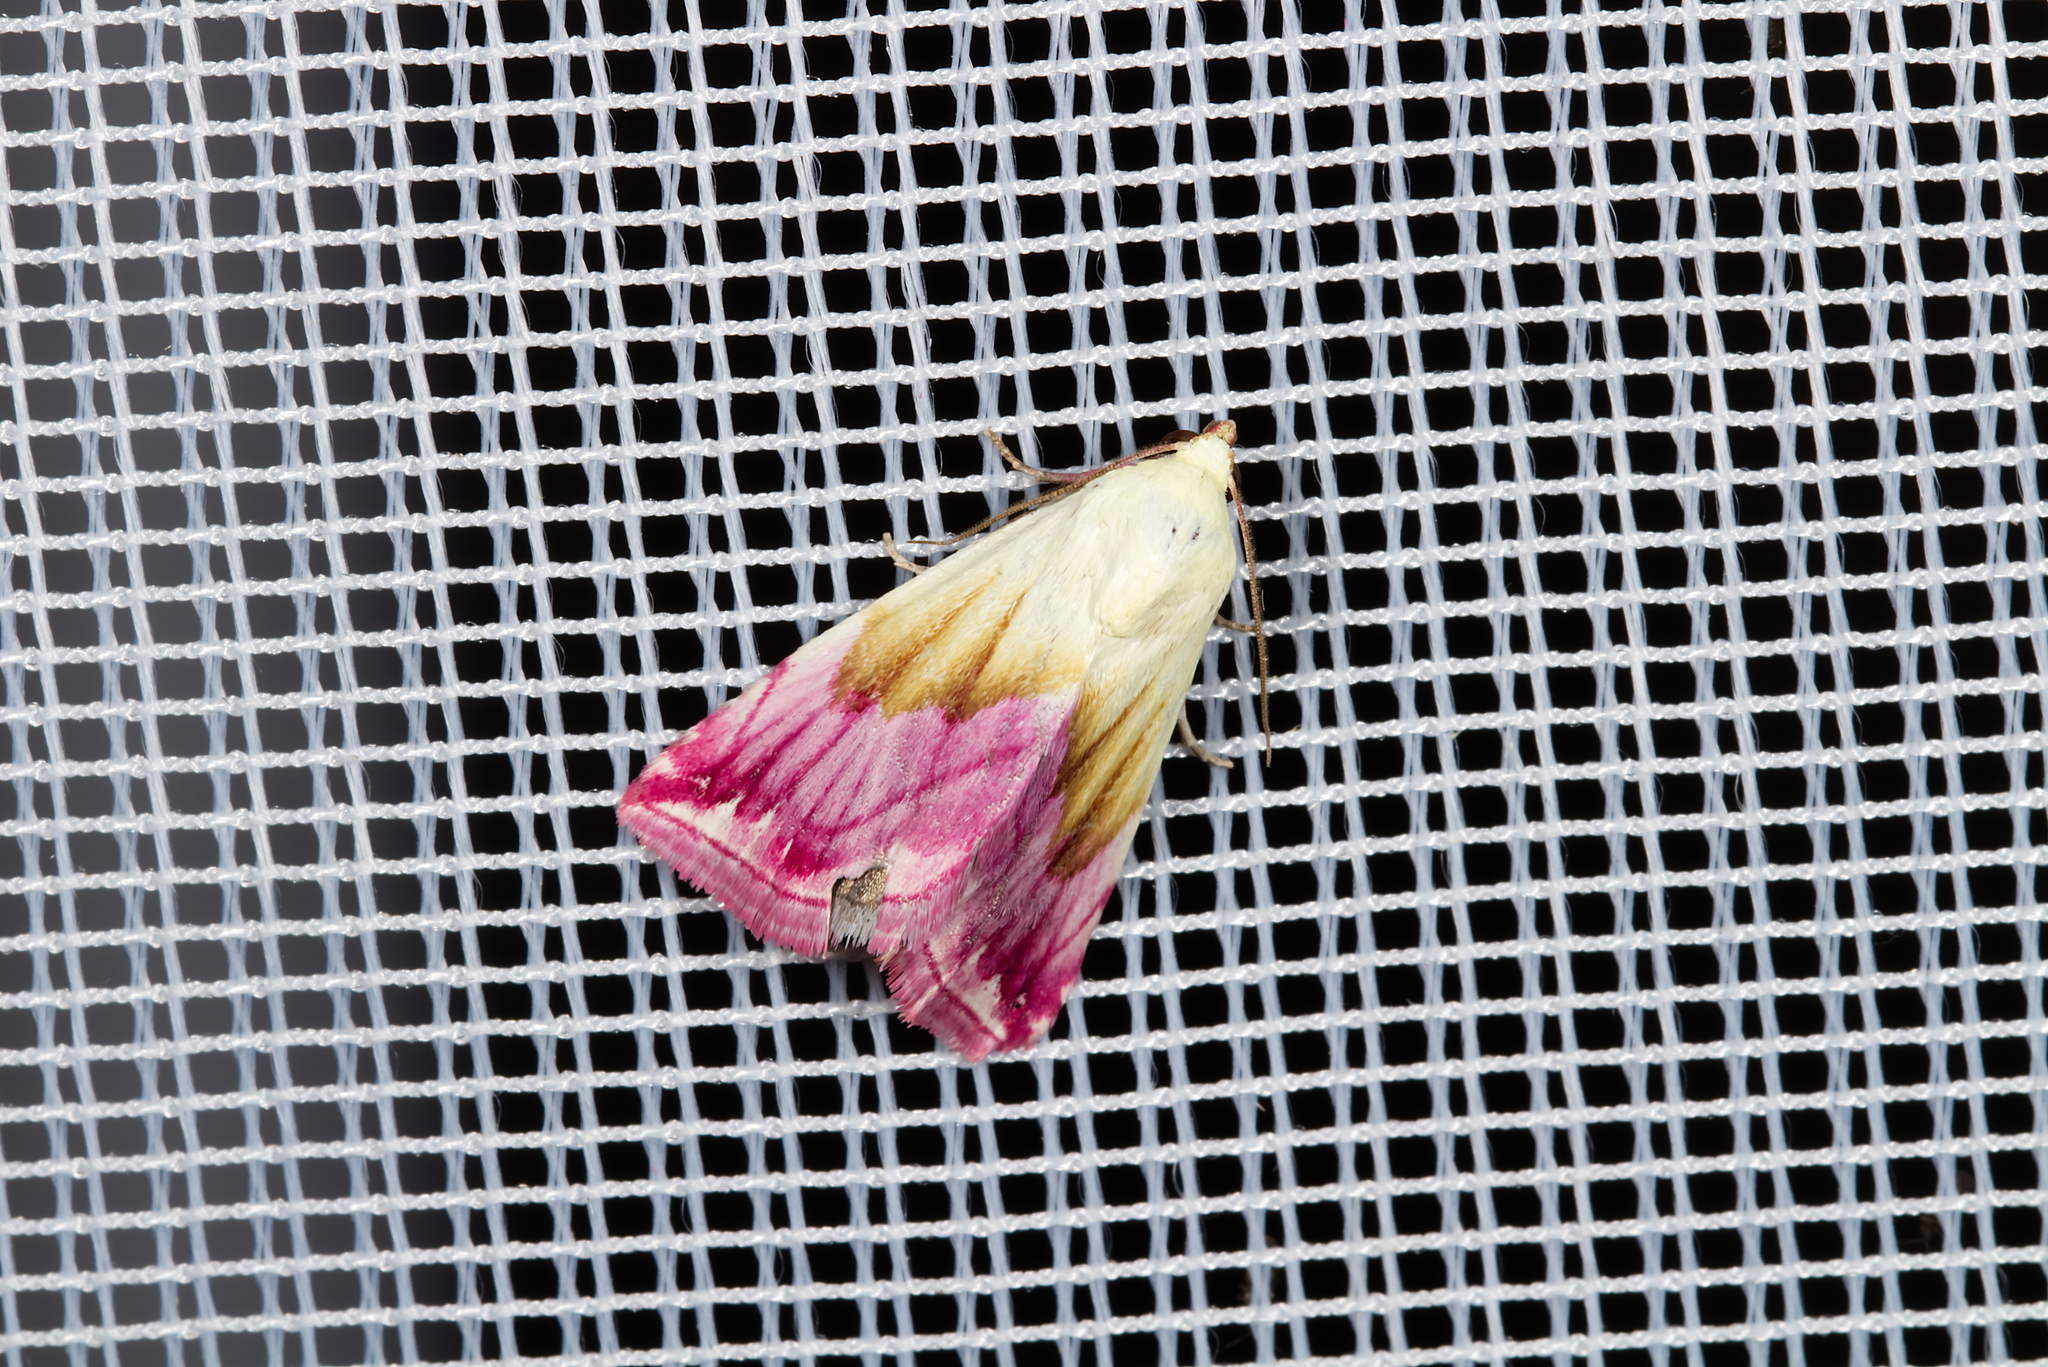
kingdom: Animalia
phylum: Arthropoda
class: Insecta
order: Lepidoptera
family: Noctuidae
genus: Eublemma
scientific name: Eublemma purpurina
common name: Beautiful marbled
